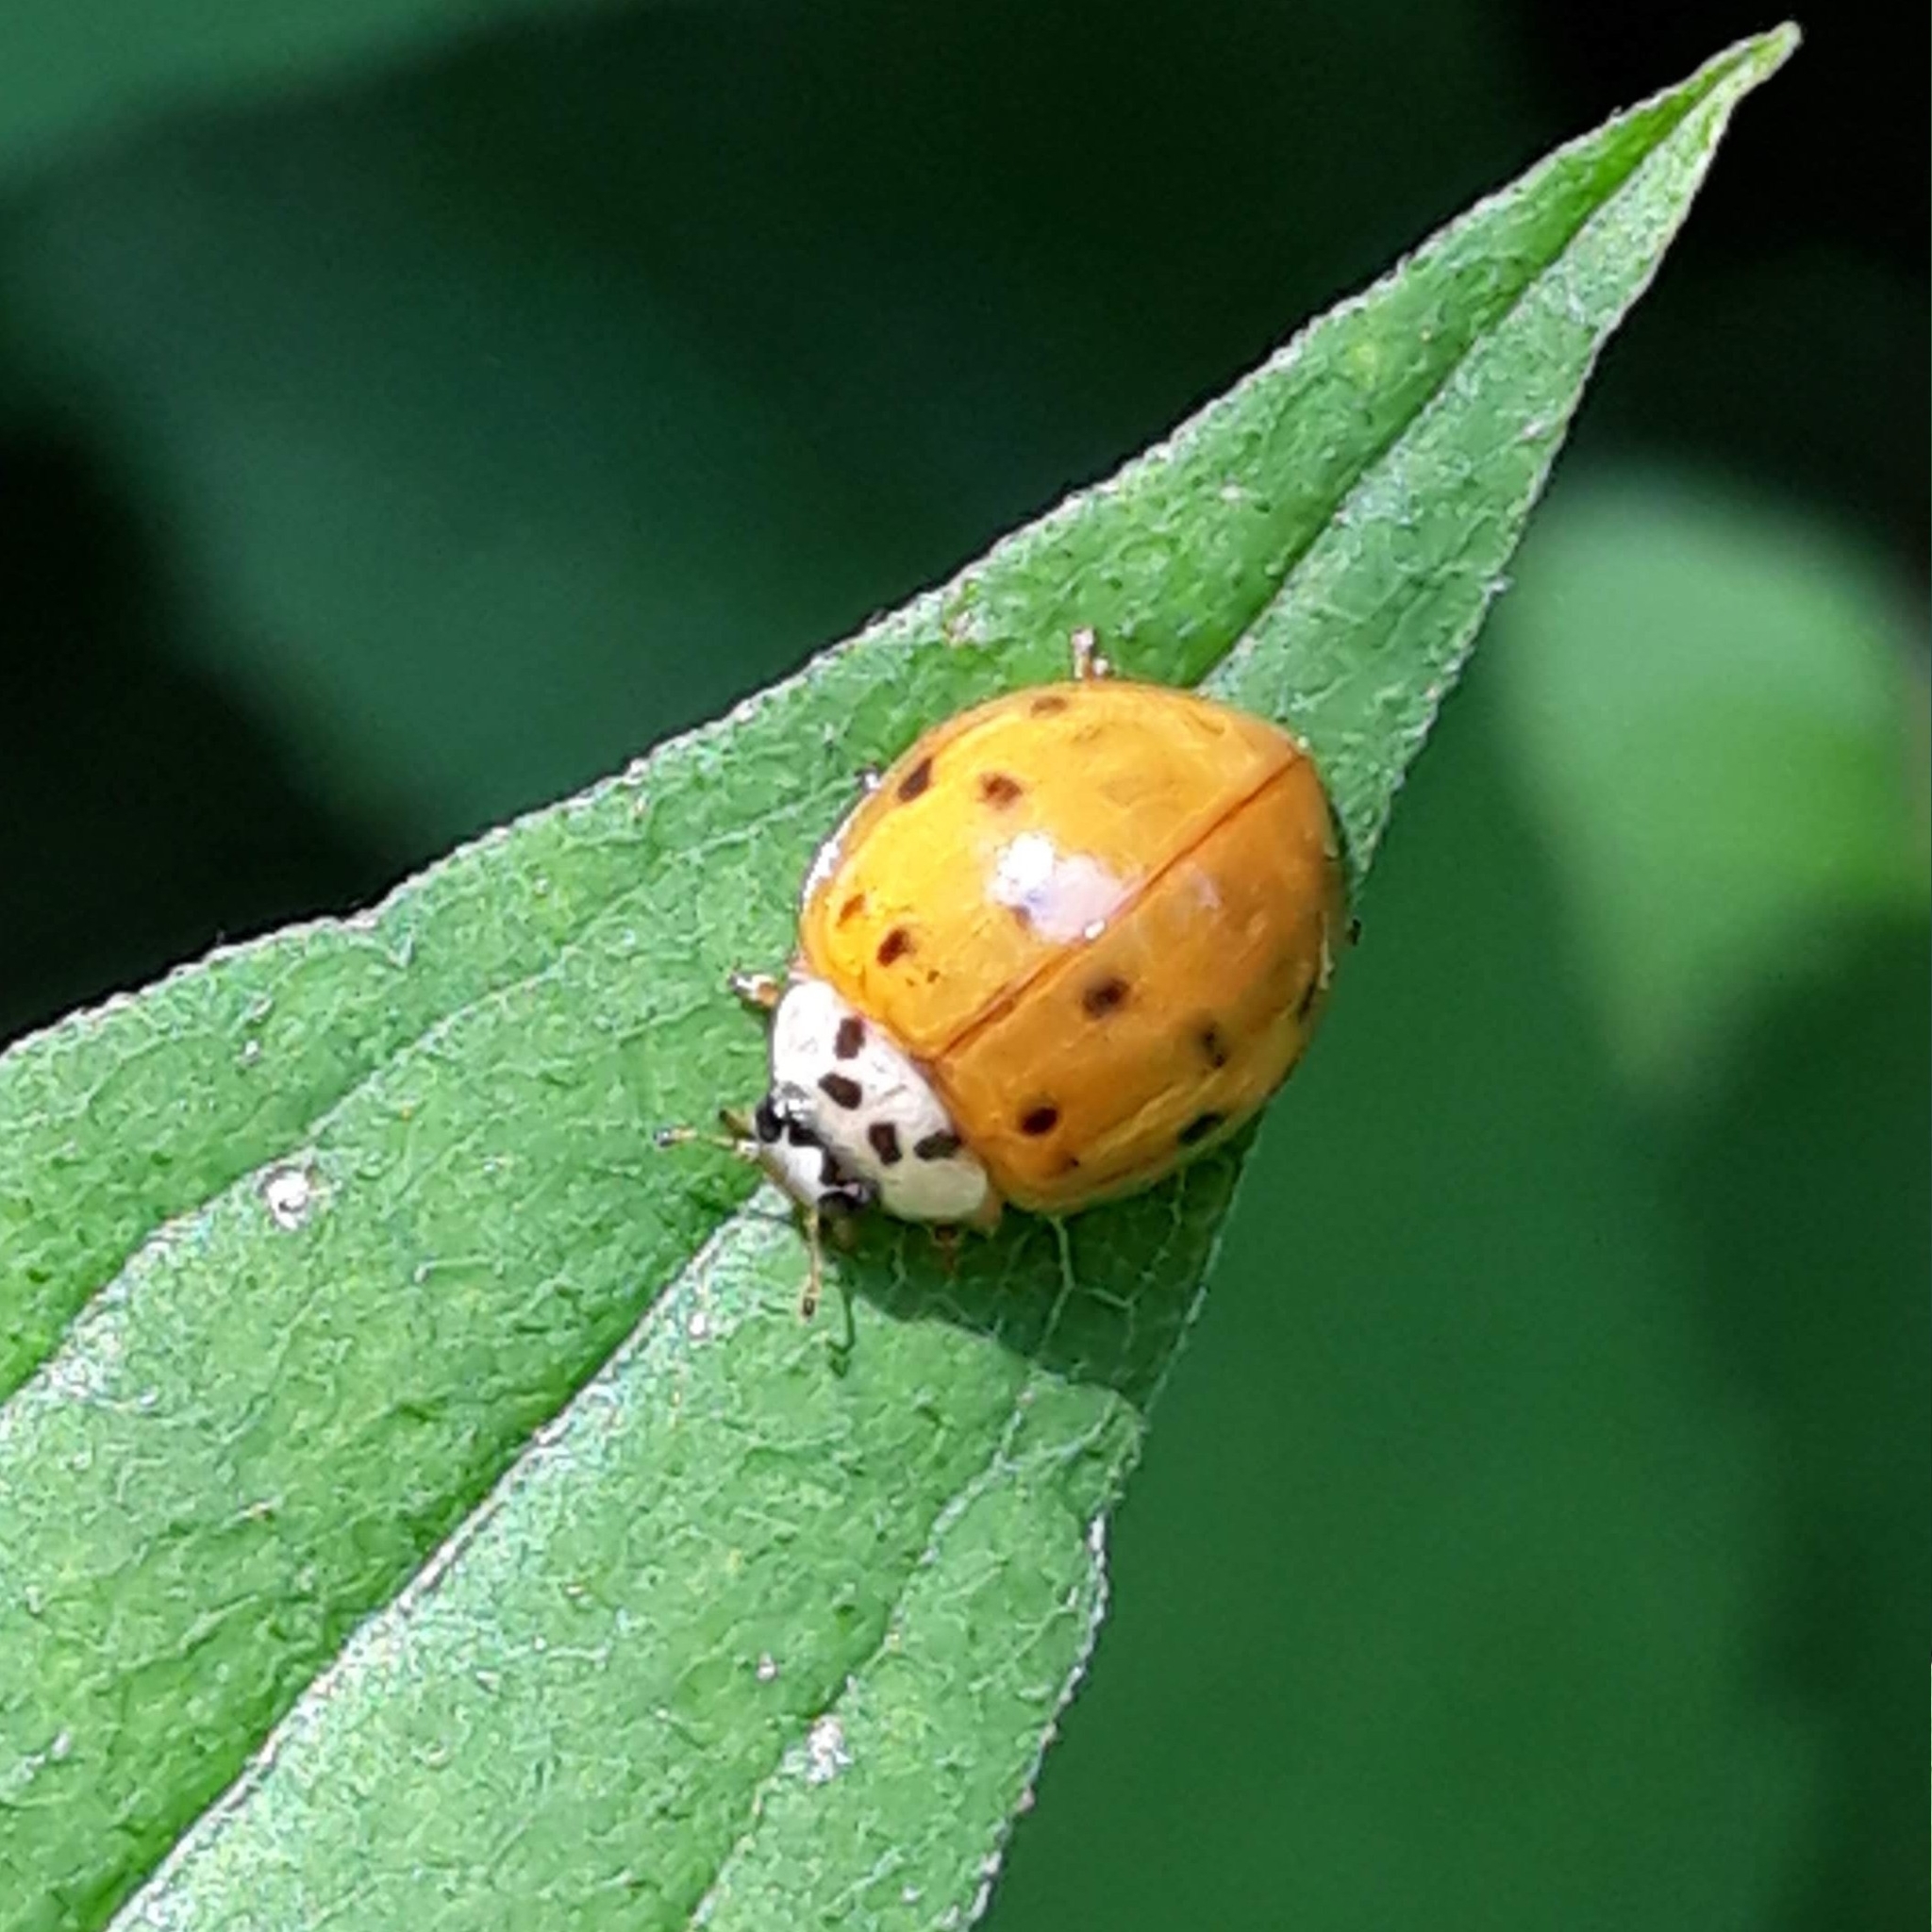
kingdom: Animalia
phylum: Arthropoda
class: Insecta
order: Coleoptera
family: Coccinellidae
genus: Harmonia
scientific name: Harmonia axyridis
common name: Harlequin ladybird
